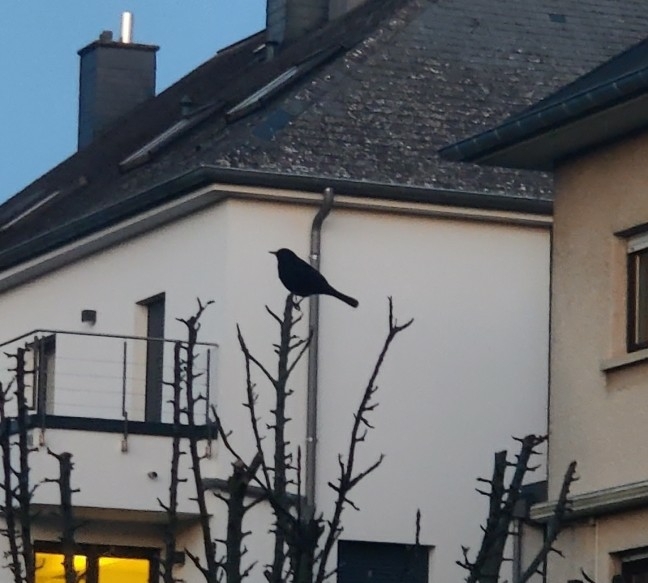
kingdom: Animalia
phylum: Chordata
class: Aves
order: Passeriformes
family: Turdidae
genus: Turdus
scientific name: Turdus merula
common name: Common blackbird
